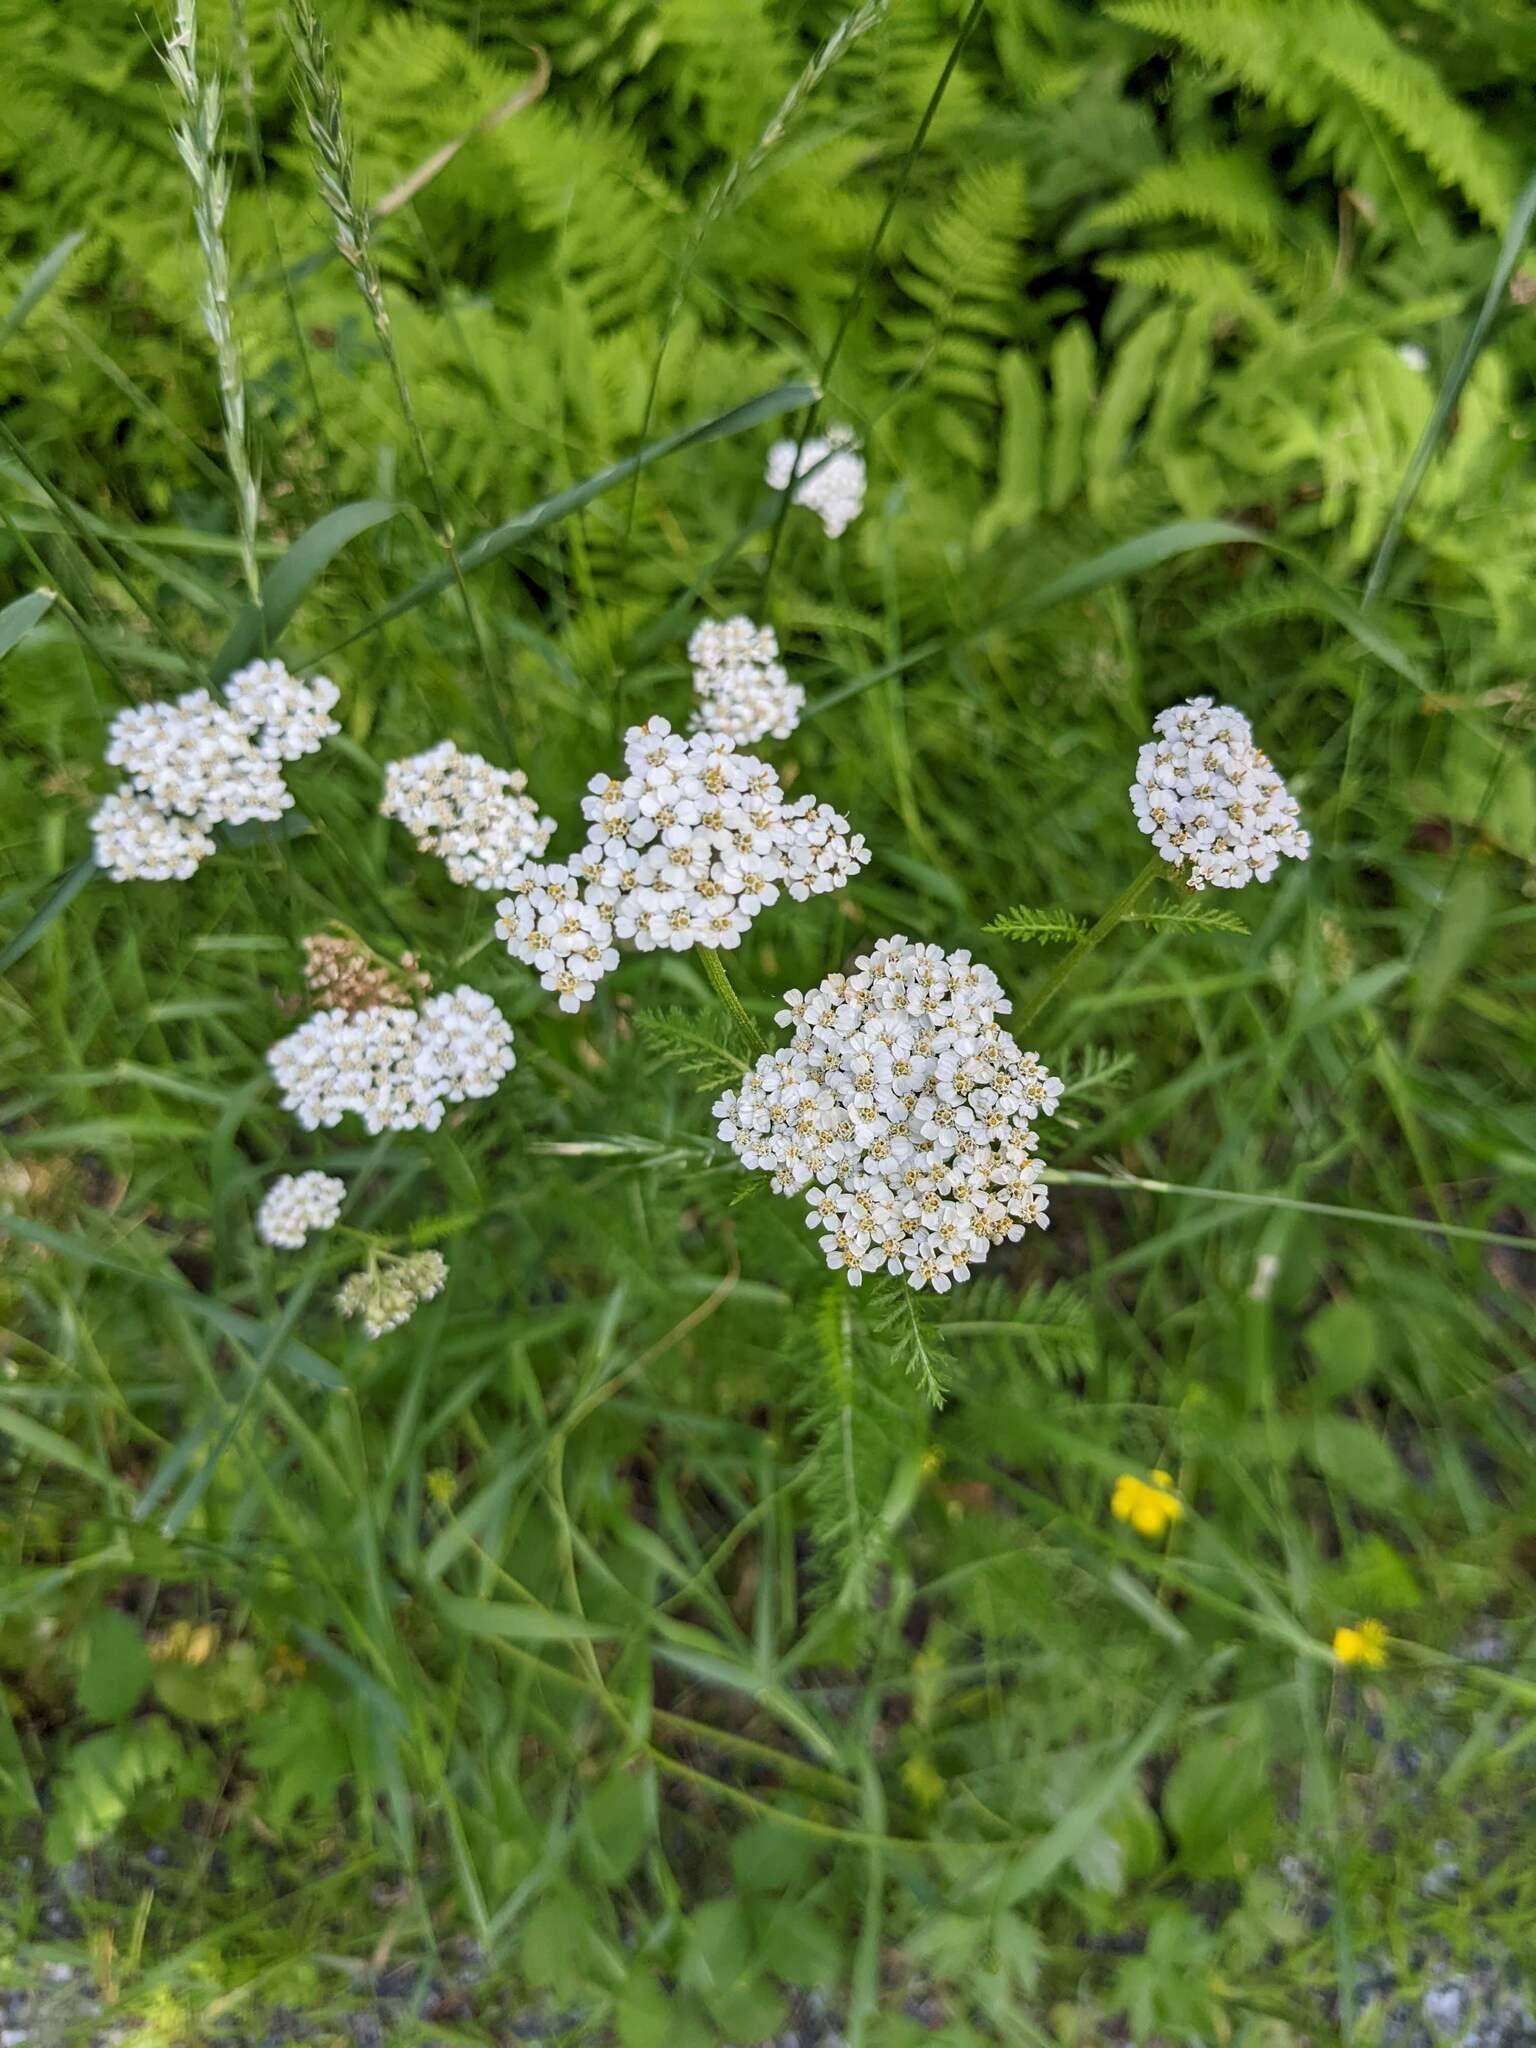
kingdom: Plantae
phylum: Tracheophyta
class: Magnoliopsida
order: Asterales
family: Asteraceae
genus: Achillea
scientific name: Achillea millefolium
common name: Yarrow
